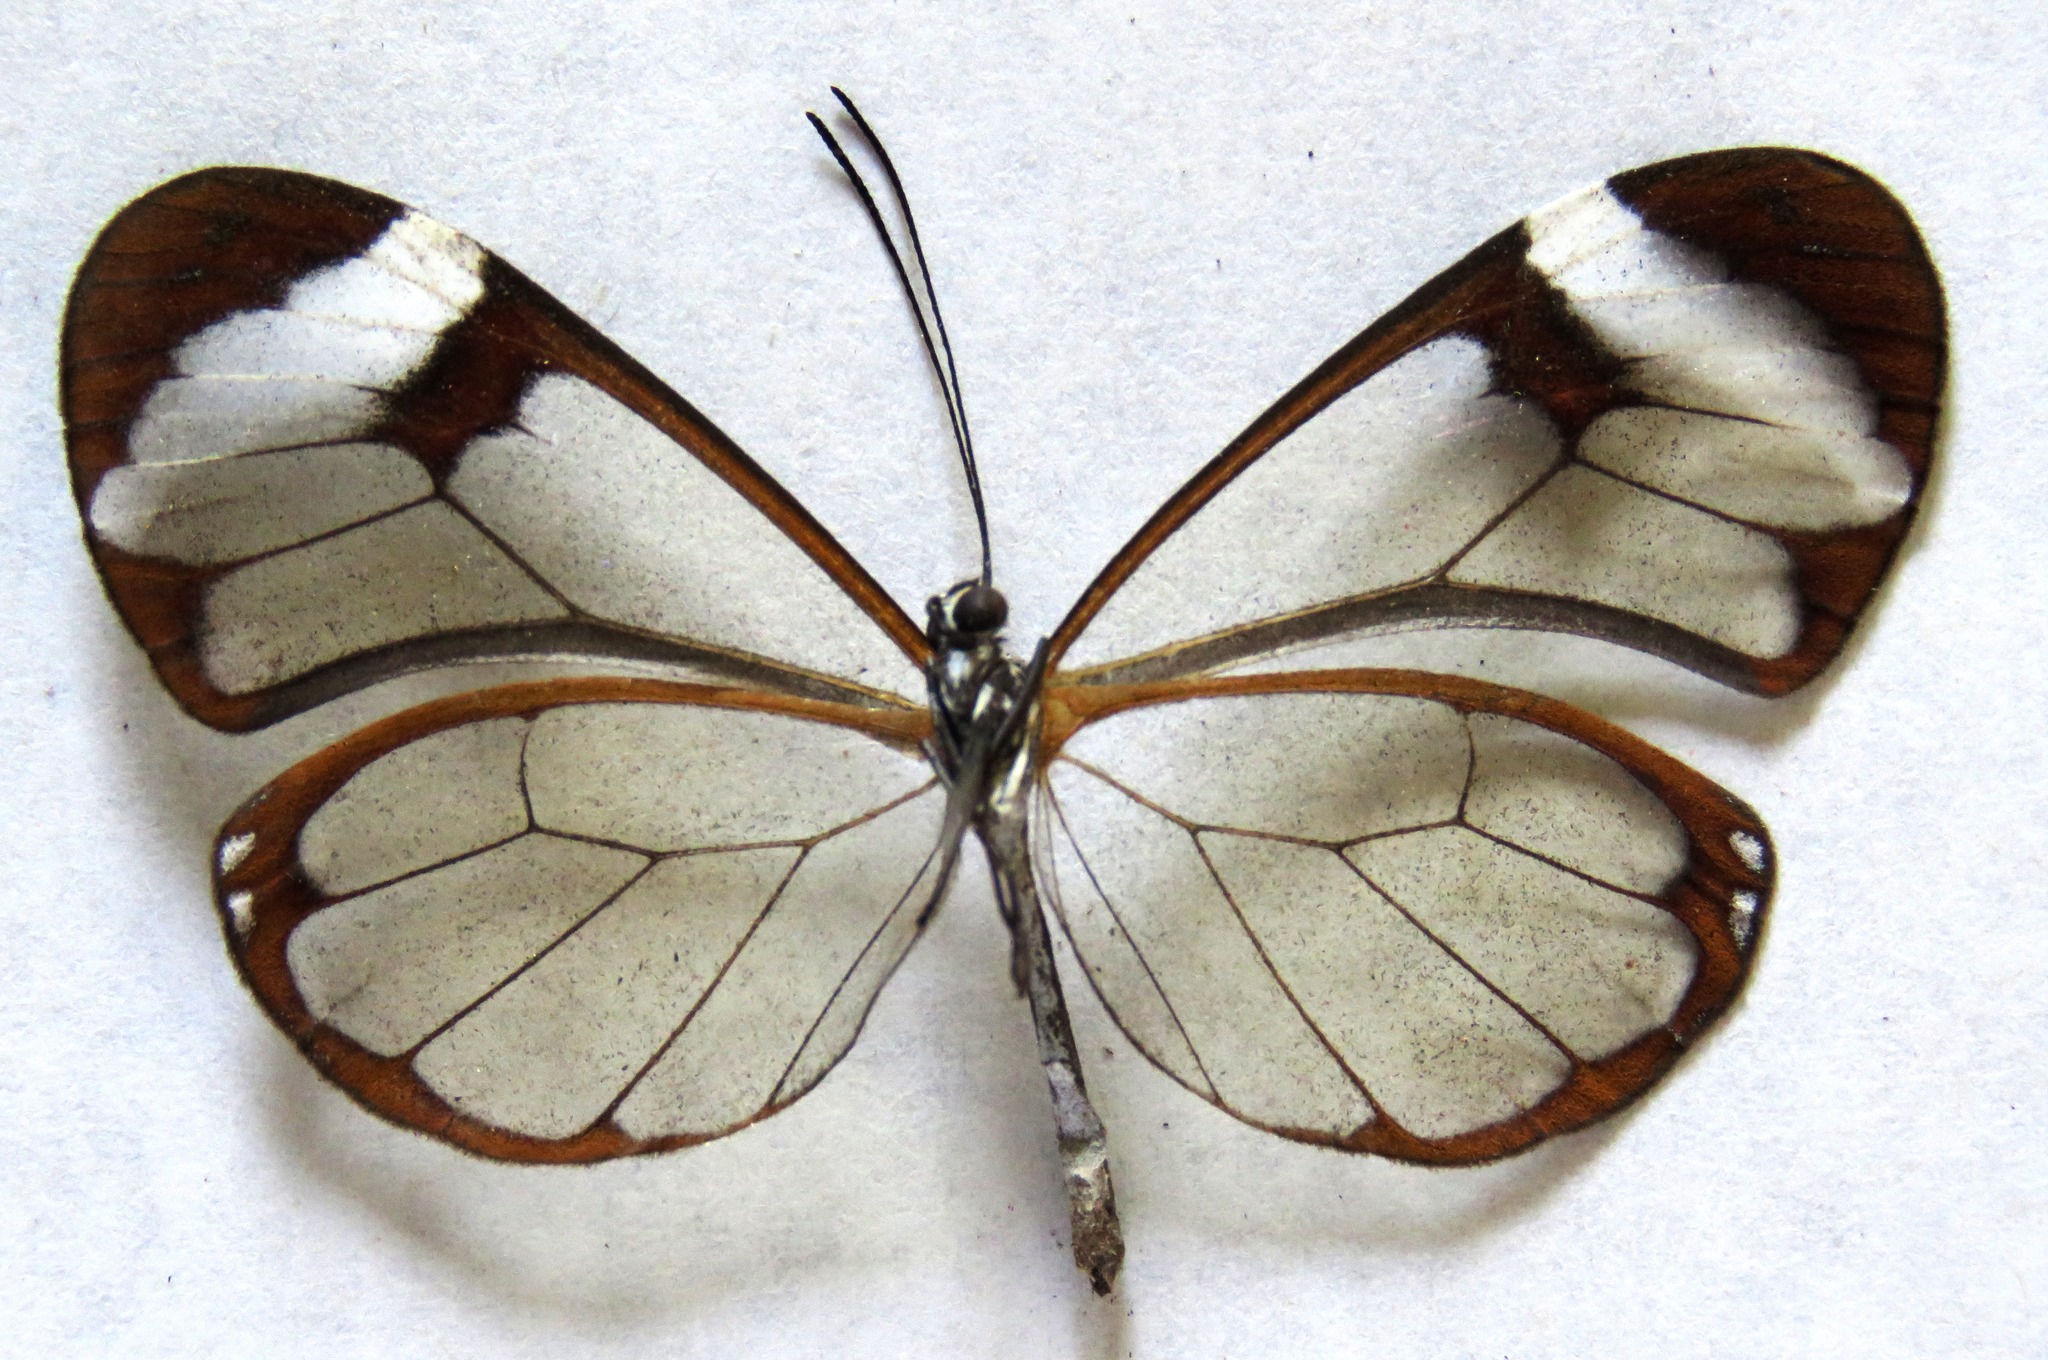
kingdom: Animalia
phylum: Arthropoda
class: Insecta
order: Lepidoptera
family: Nymphalidae
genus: Greta
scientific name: Greta morgane
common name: Thick-tipped greta
